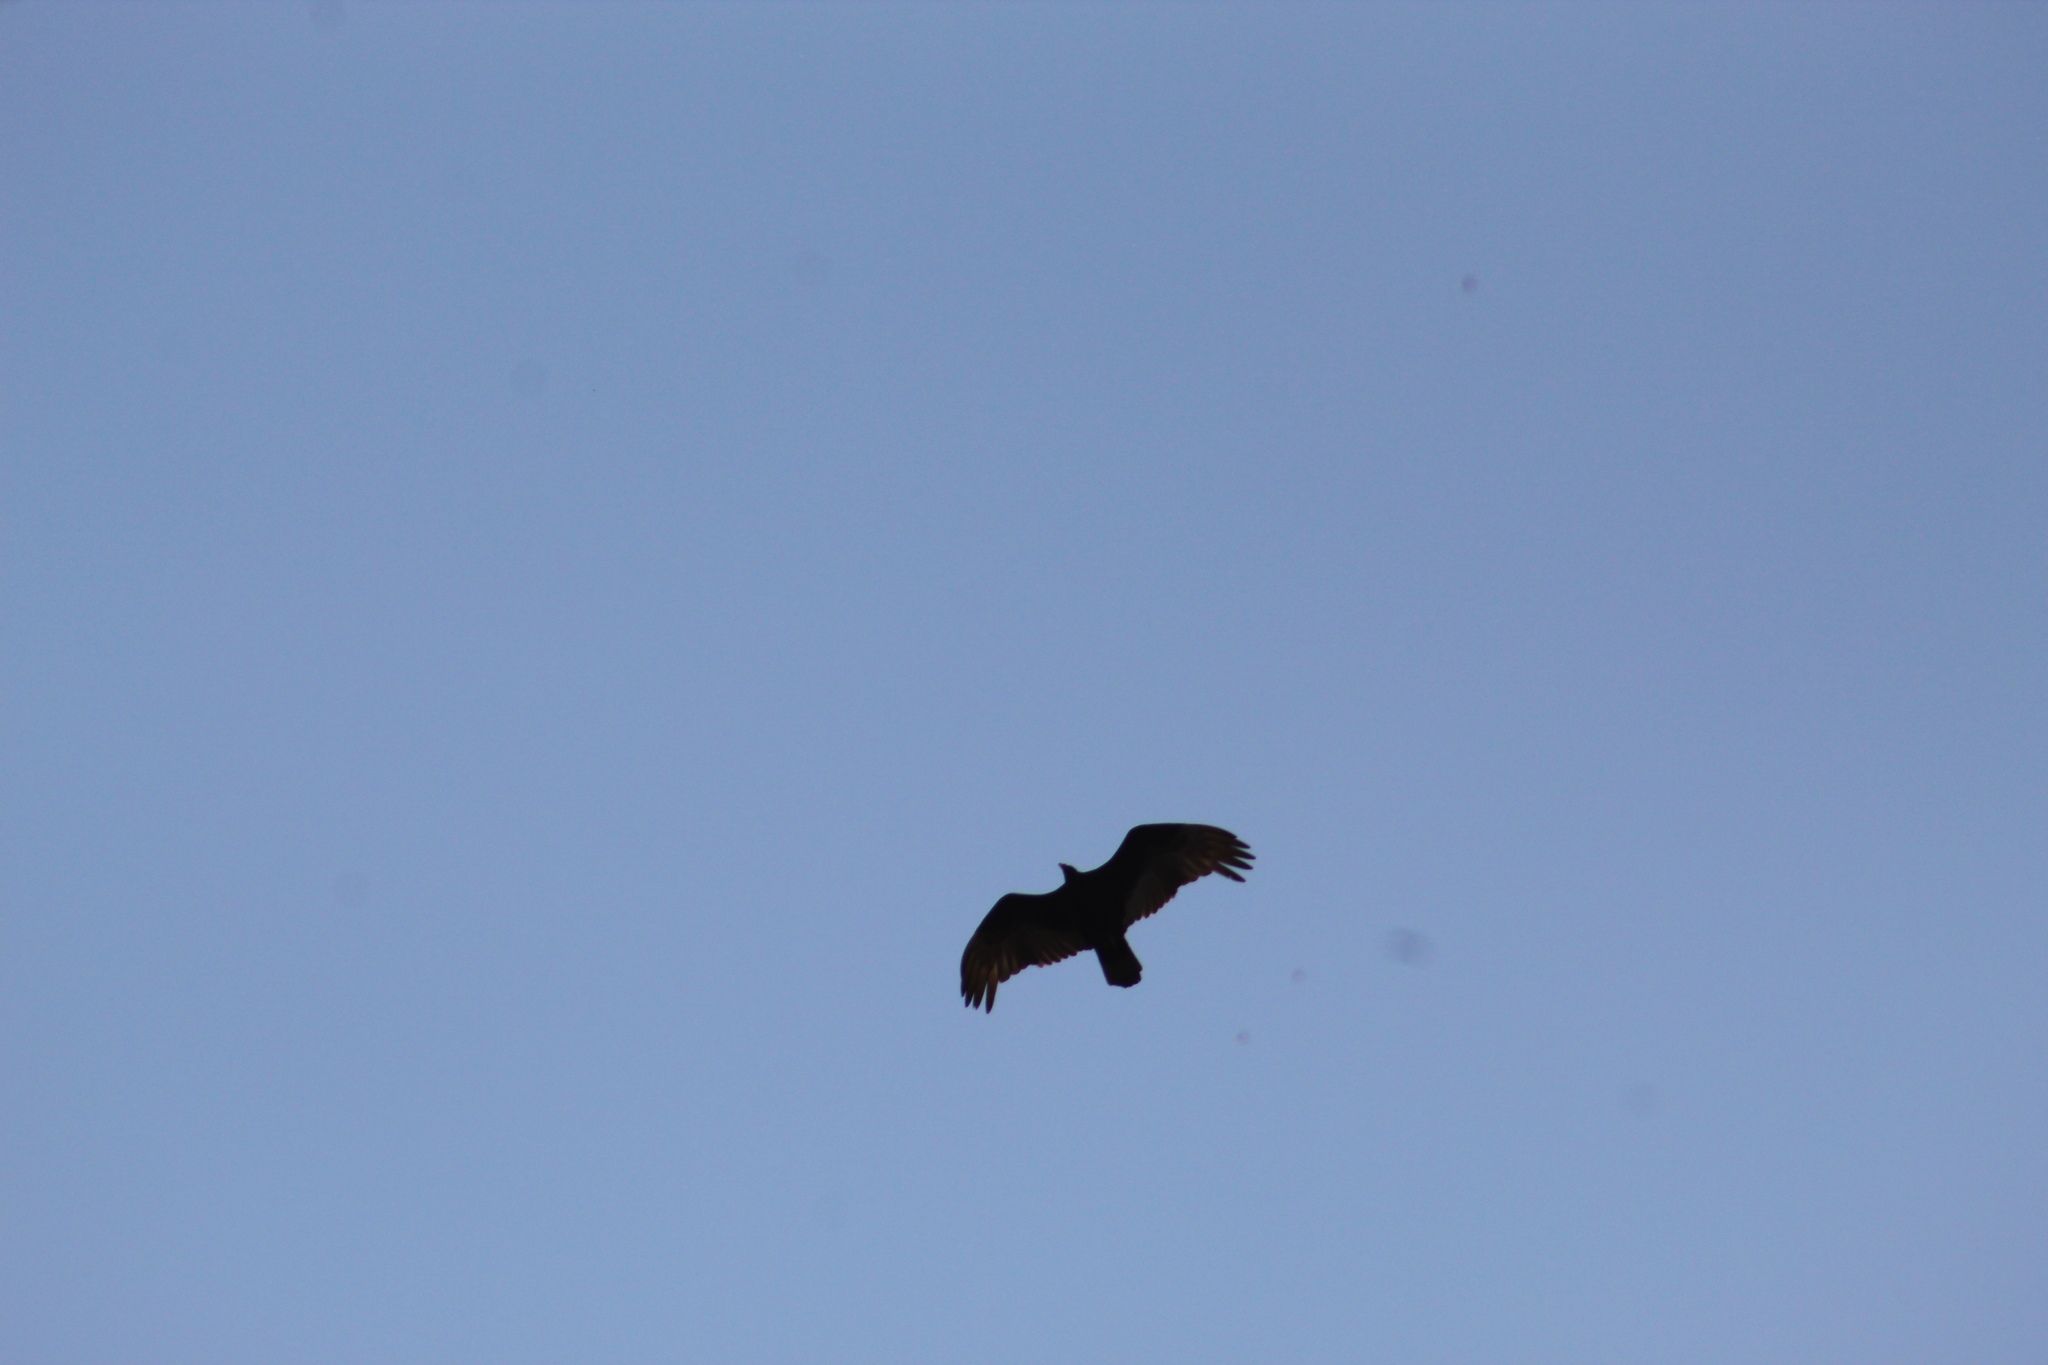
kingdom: Animalia
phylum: Chordata
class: Aves
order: Accipitriformes
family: Cathartidae
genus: Cathartes
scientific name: Cathartes aura
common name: Turkey vulture
